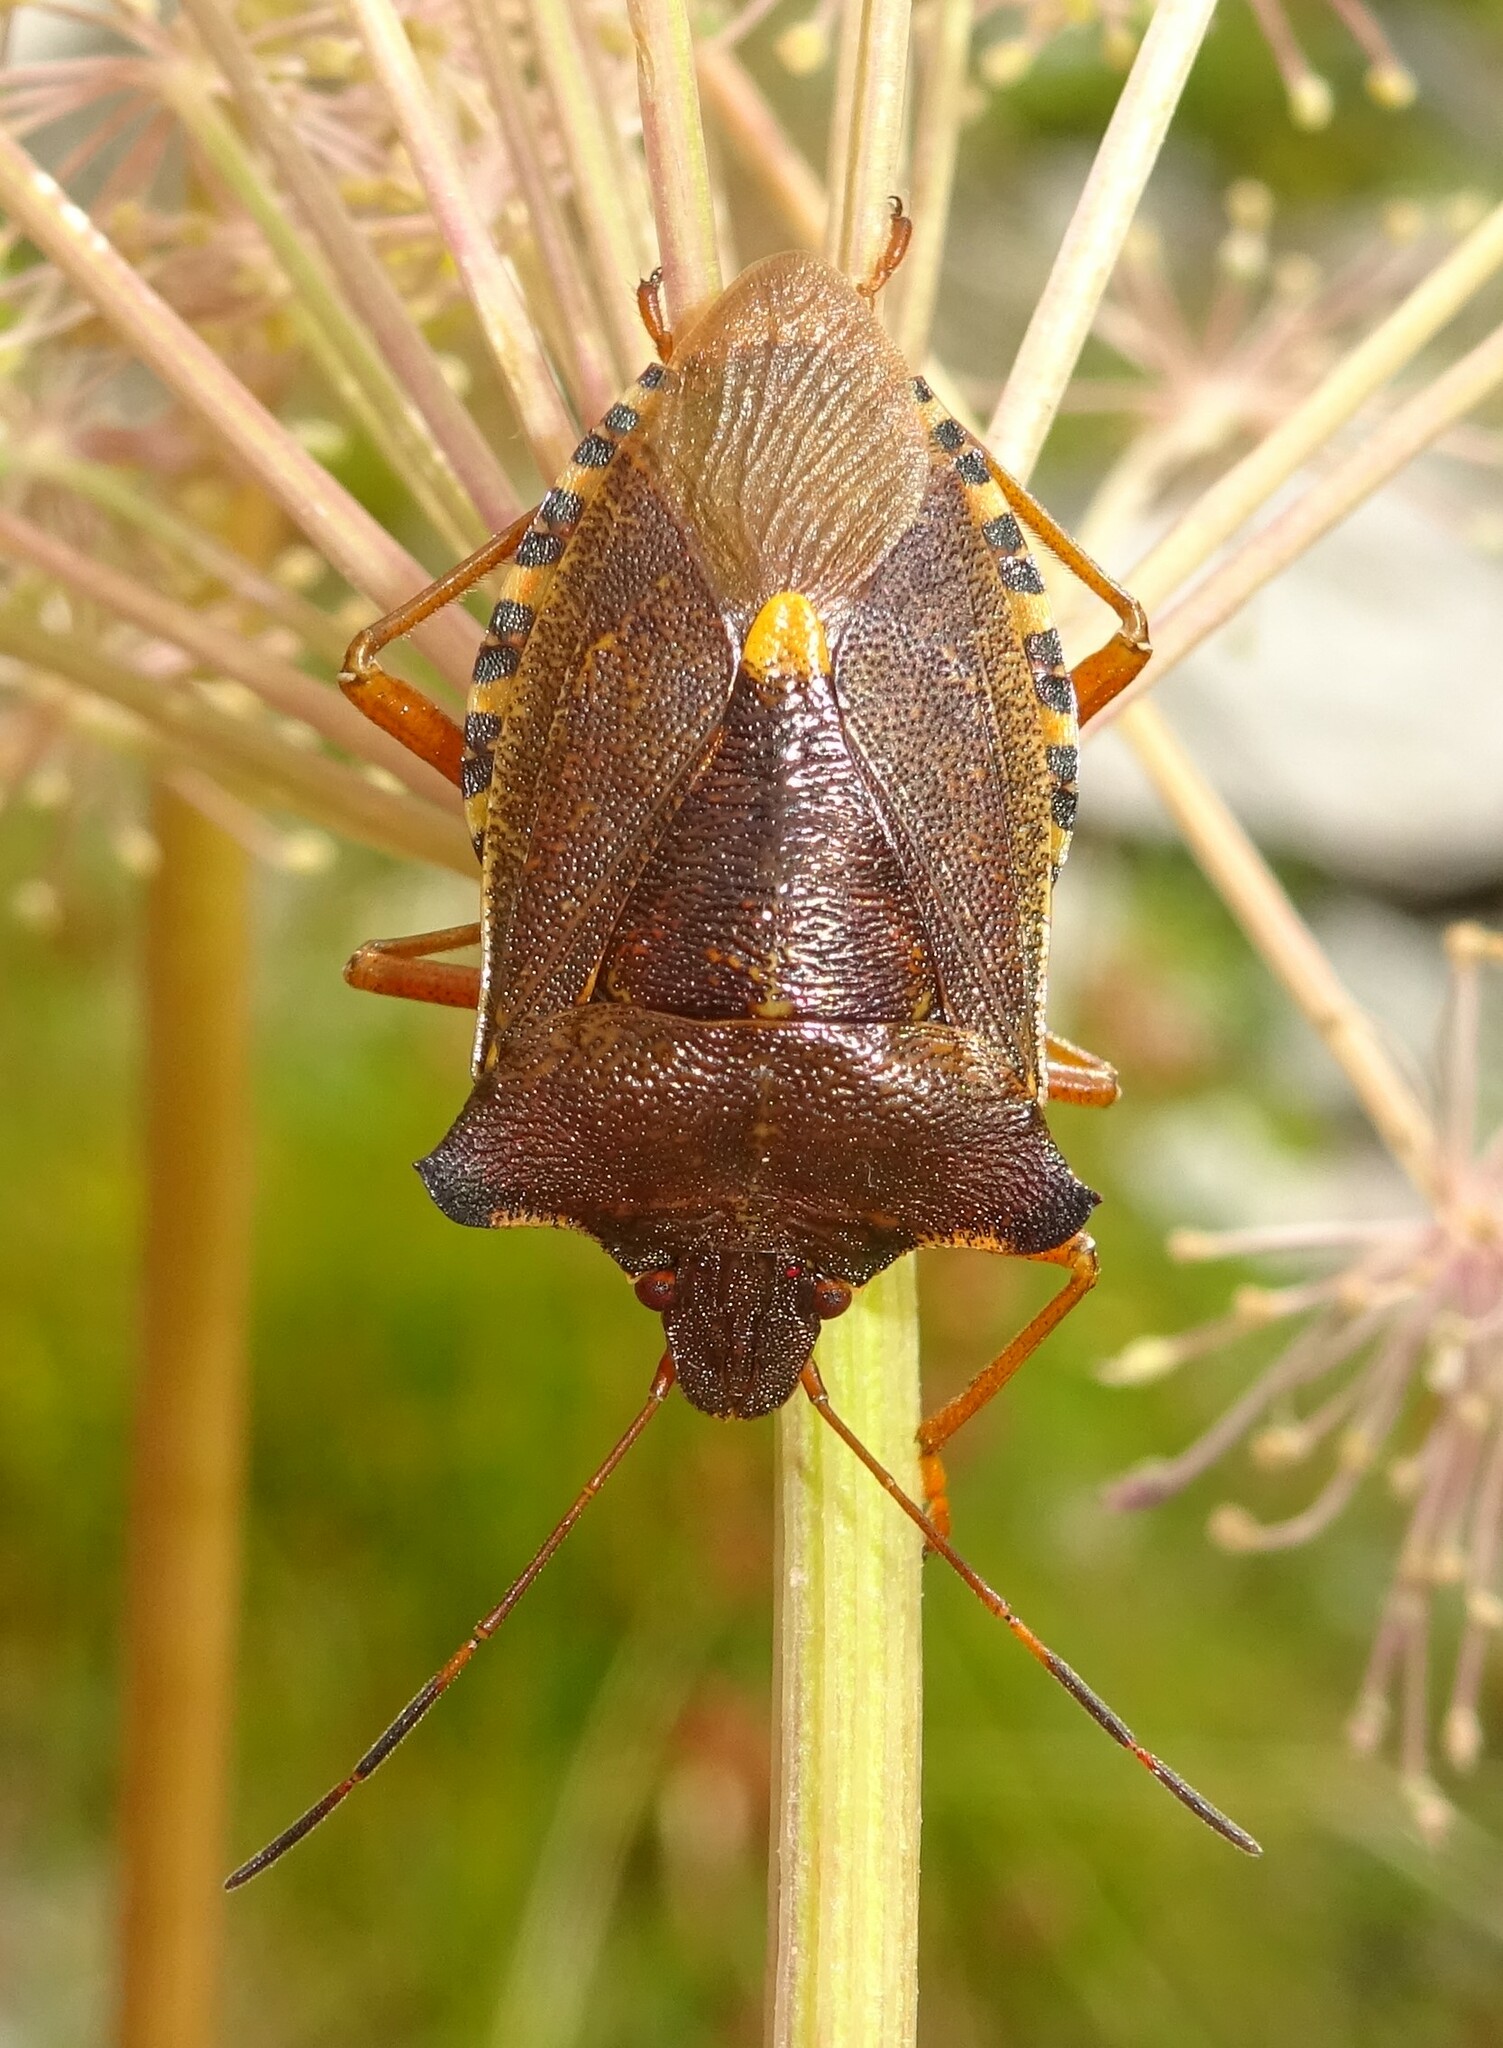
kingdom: Animalia
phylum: Arthropoda
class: Insecta
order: Hemiptera
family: Pentatomidae
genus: Pentatoma
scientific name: Pentatoma rufipes
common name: Forest bug
